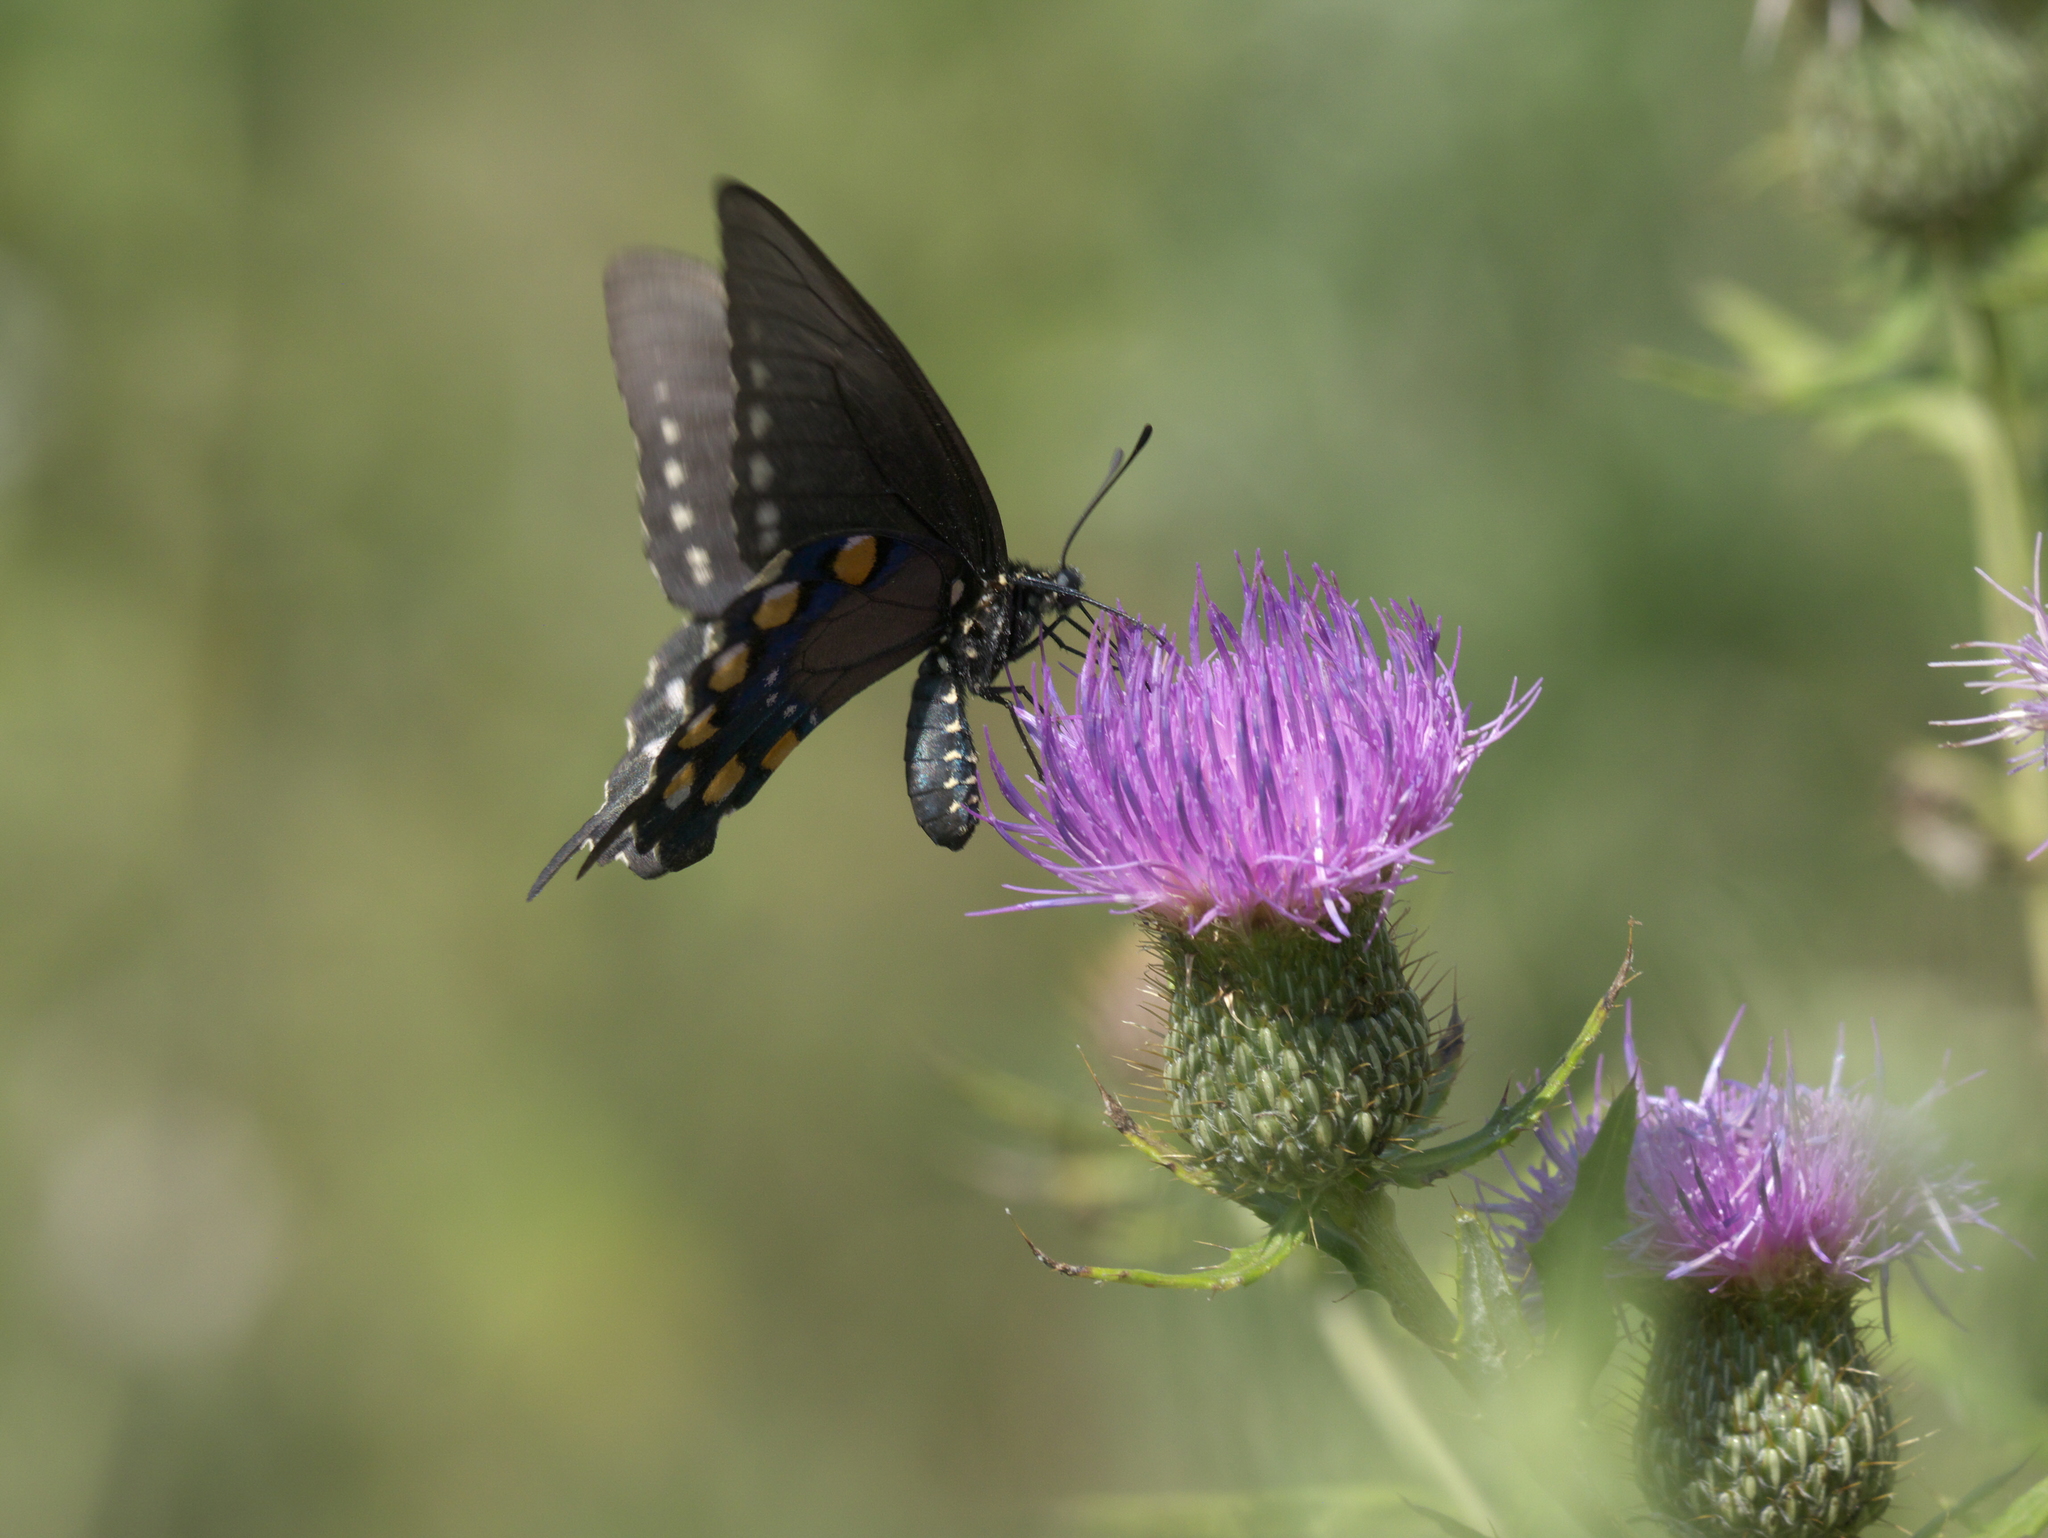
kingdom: Animalia
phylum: Arthropoda
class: Insecta
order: Lepidoptera
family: Papilionidae
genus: Battus
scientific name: Battus philenor
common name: Pipevine swallowtail
